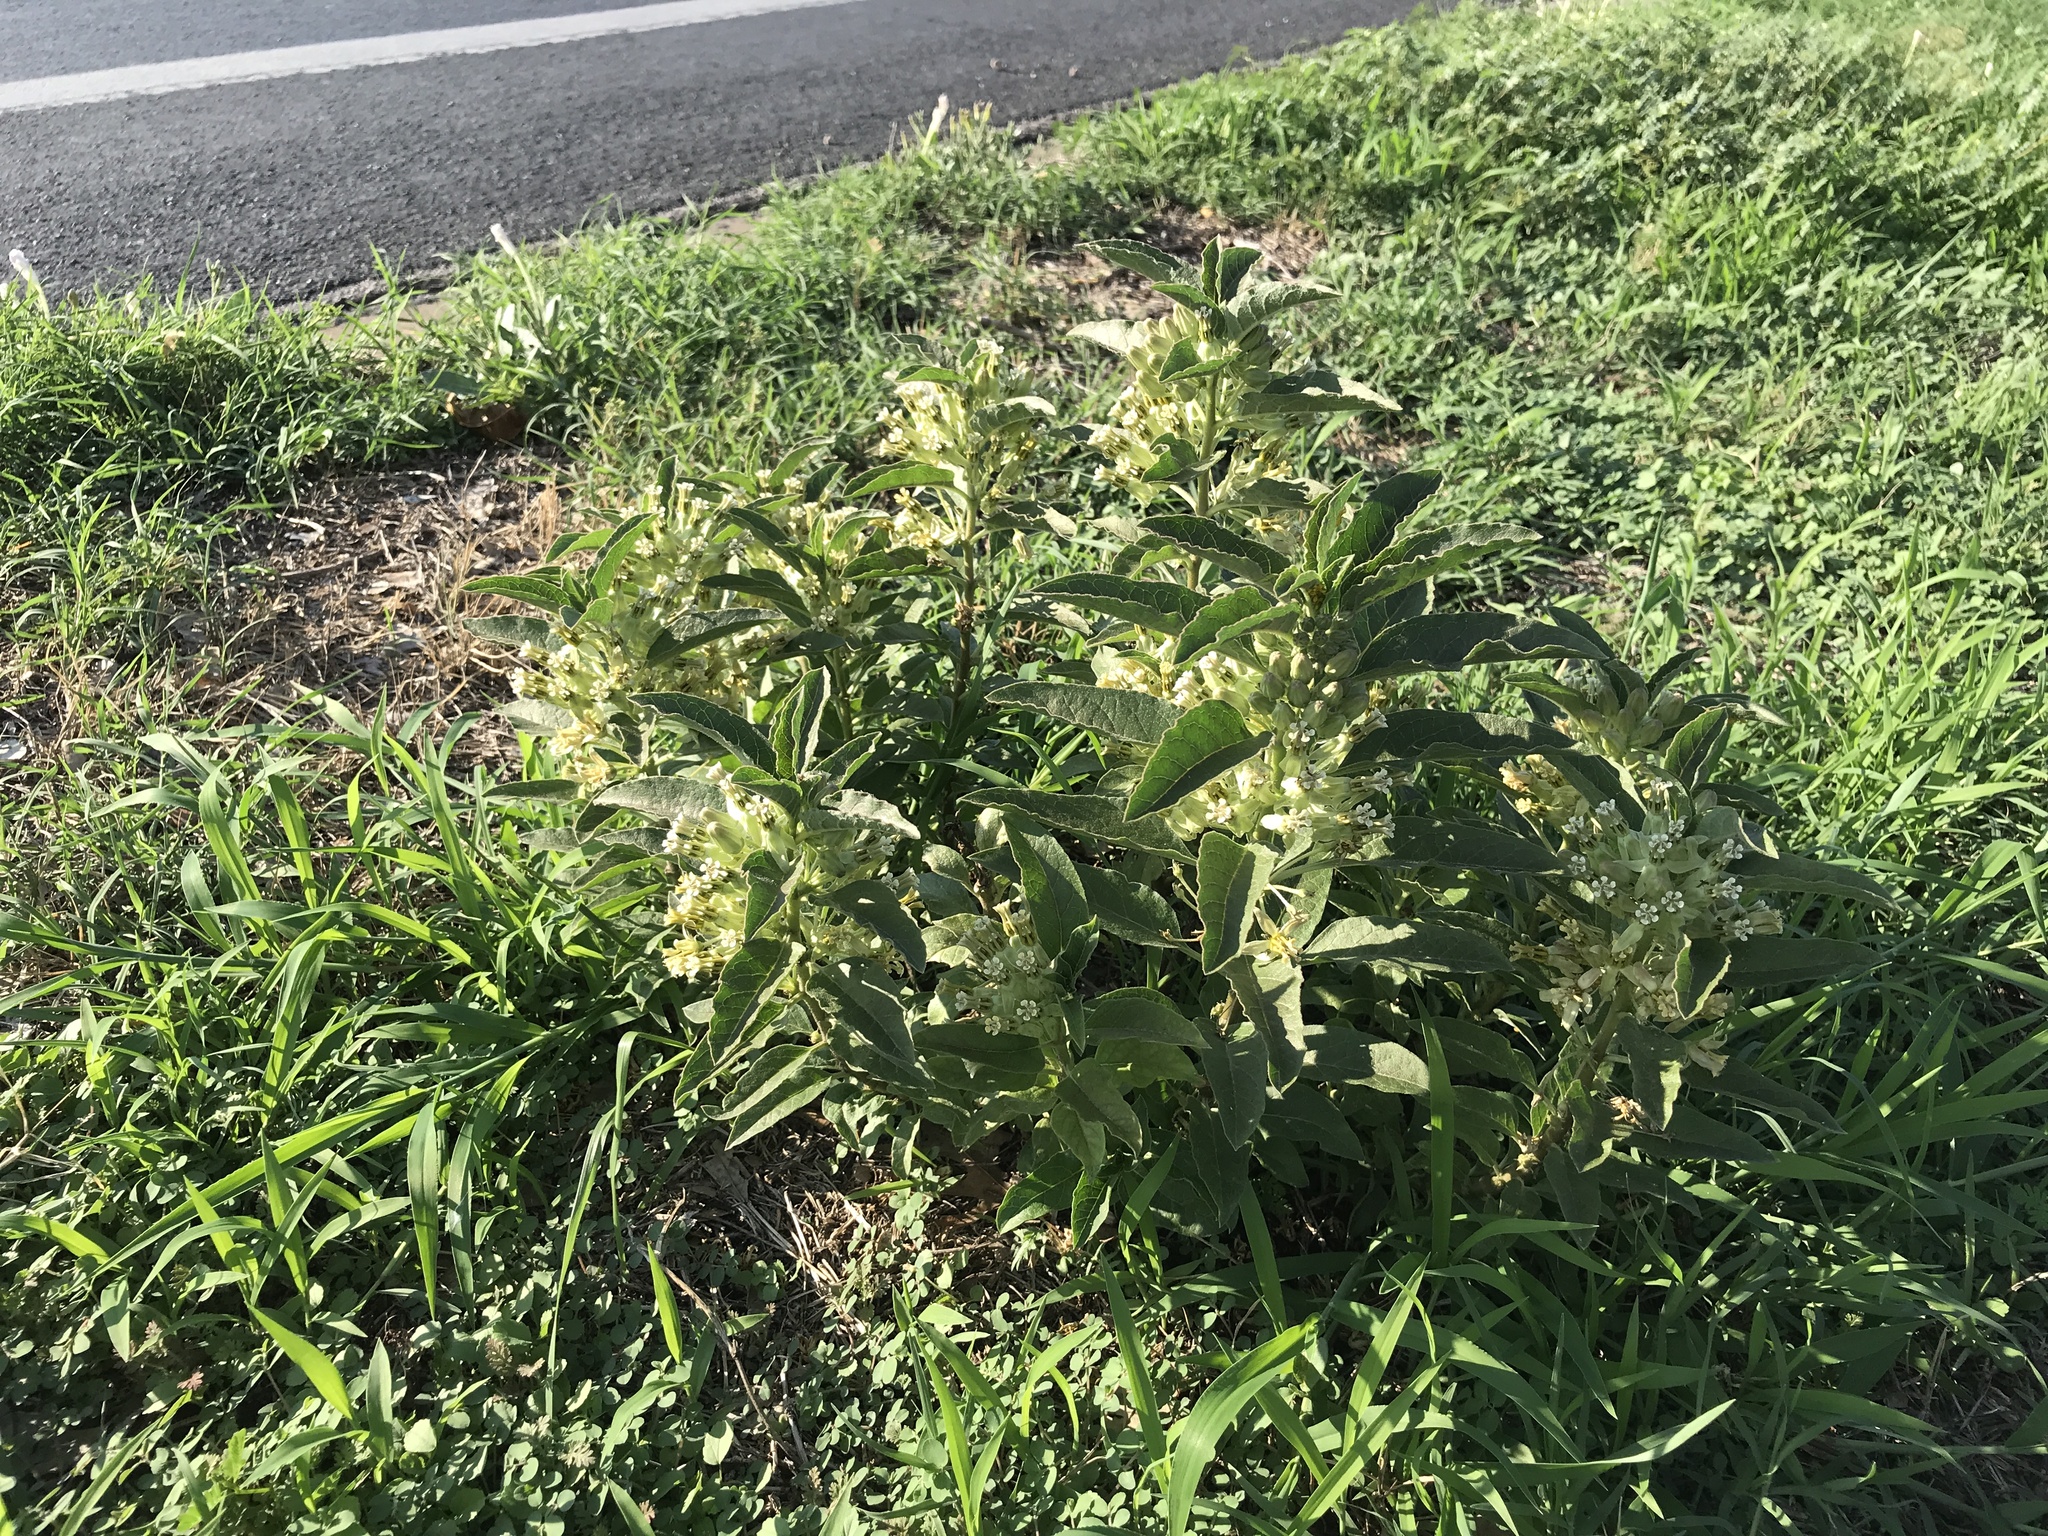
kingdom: Plantae
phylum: Tracheophyta
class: Magnoliopsida
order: Gentianales
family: Apocynaceae
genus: Asclepias
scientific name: Asclepias oenotheroides
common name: Zizotes milkweed
